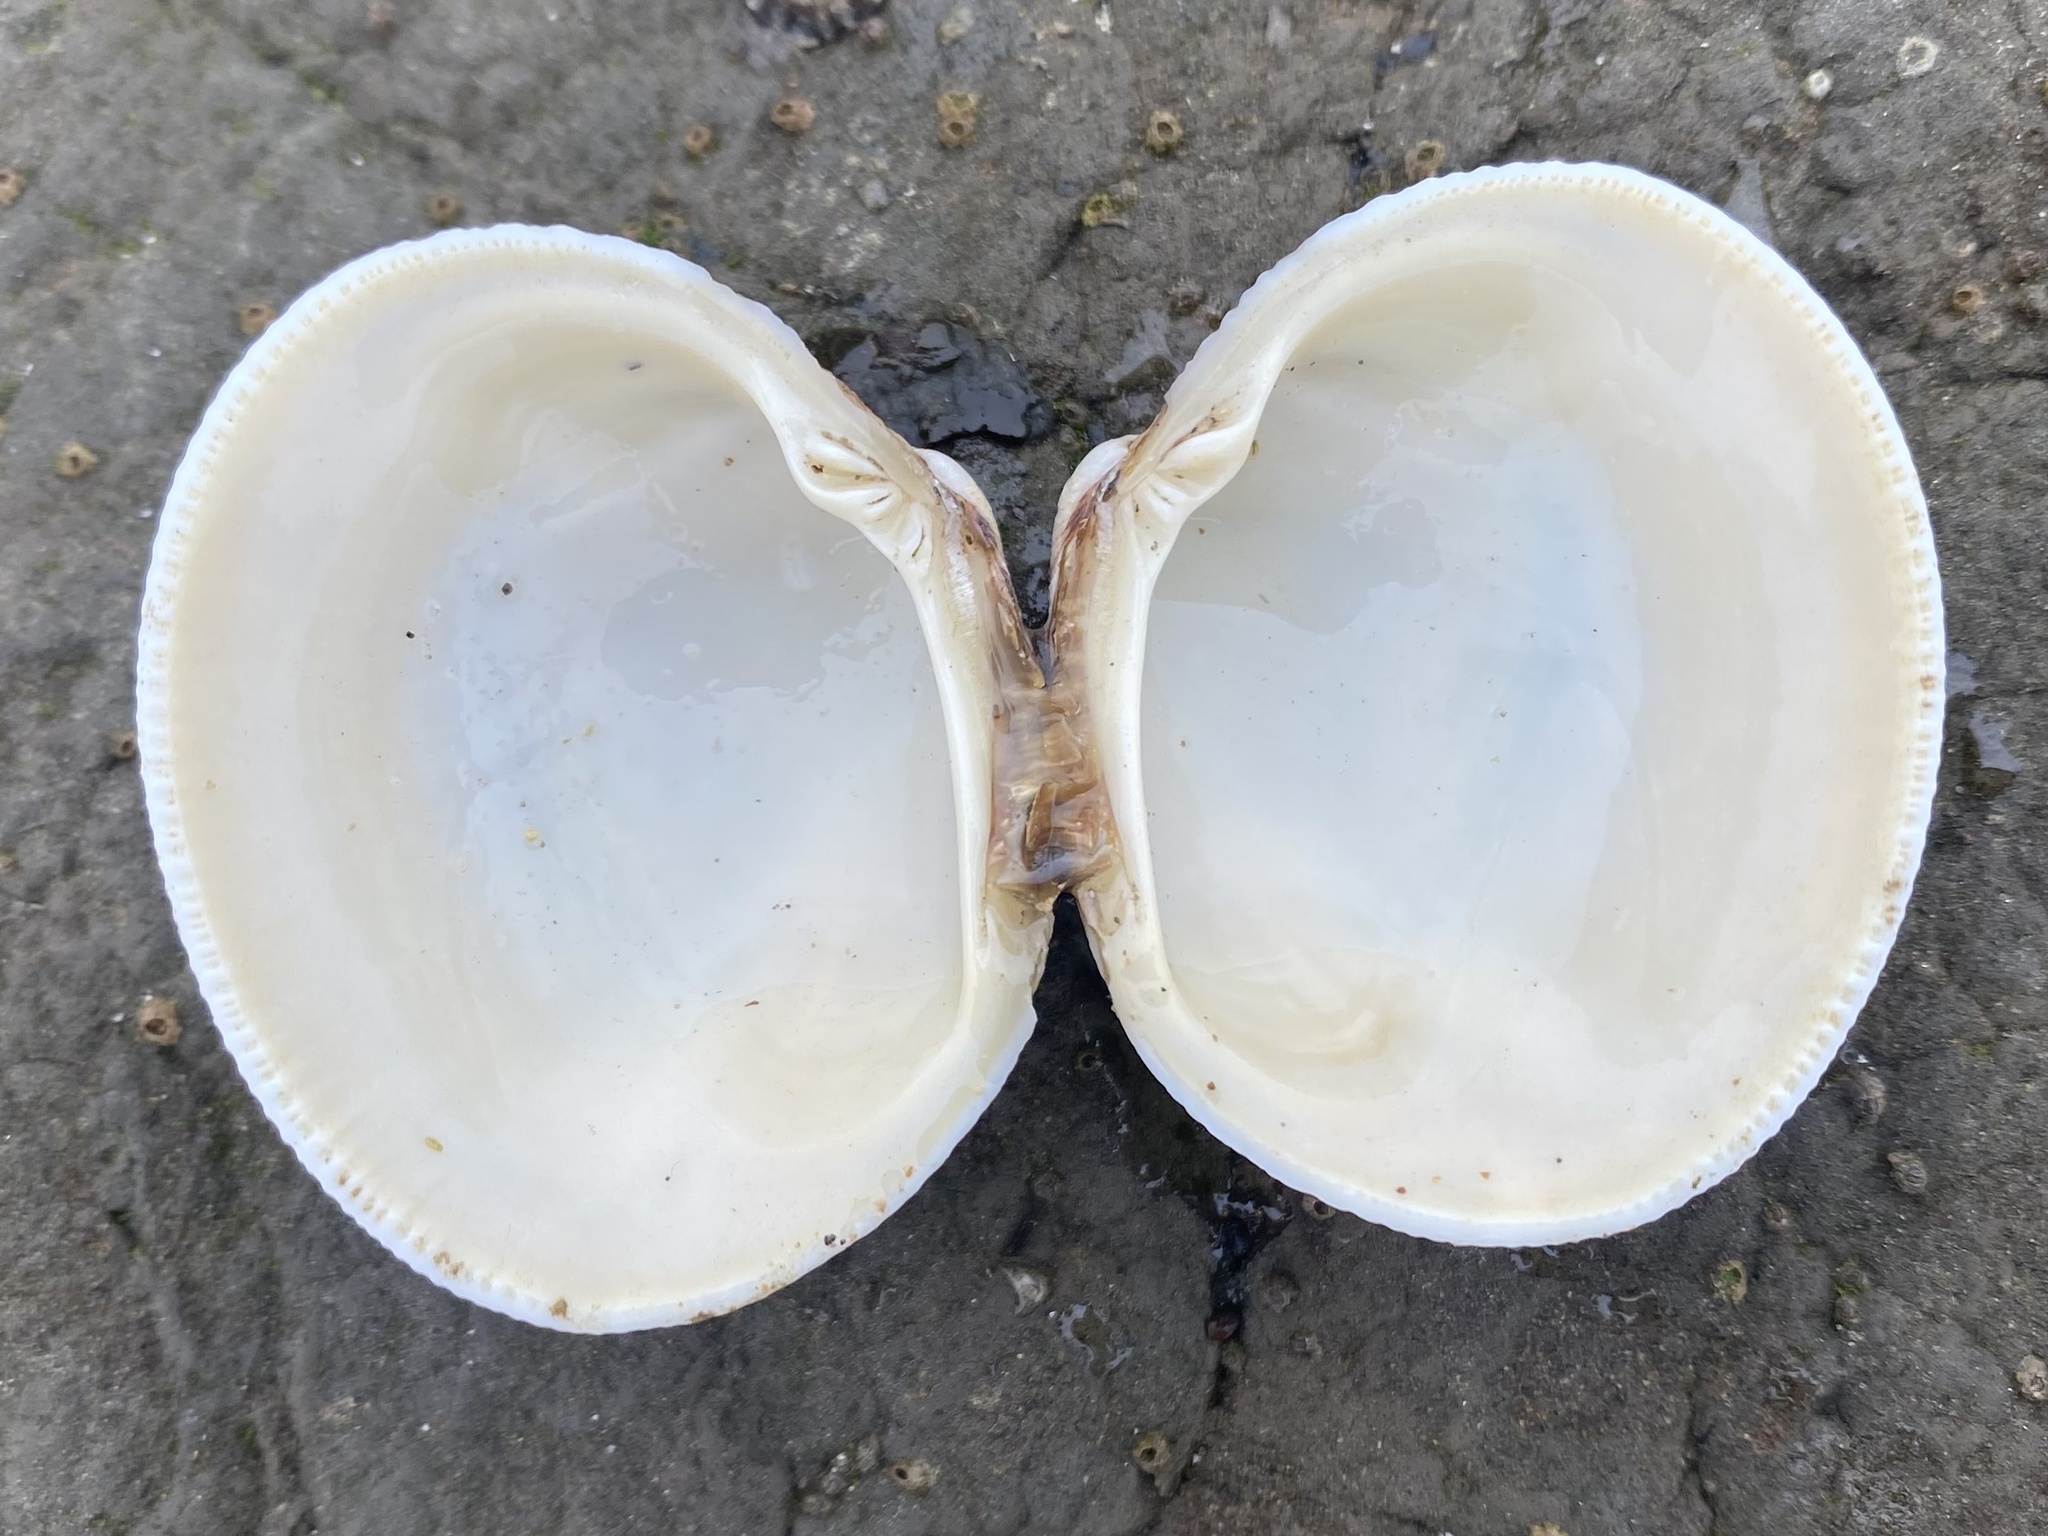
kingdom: Animalia
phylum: Mollusca
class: Bivalvia
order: Venerida
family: Veneridae
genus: Leukoma
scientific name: Leukoma staminea
